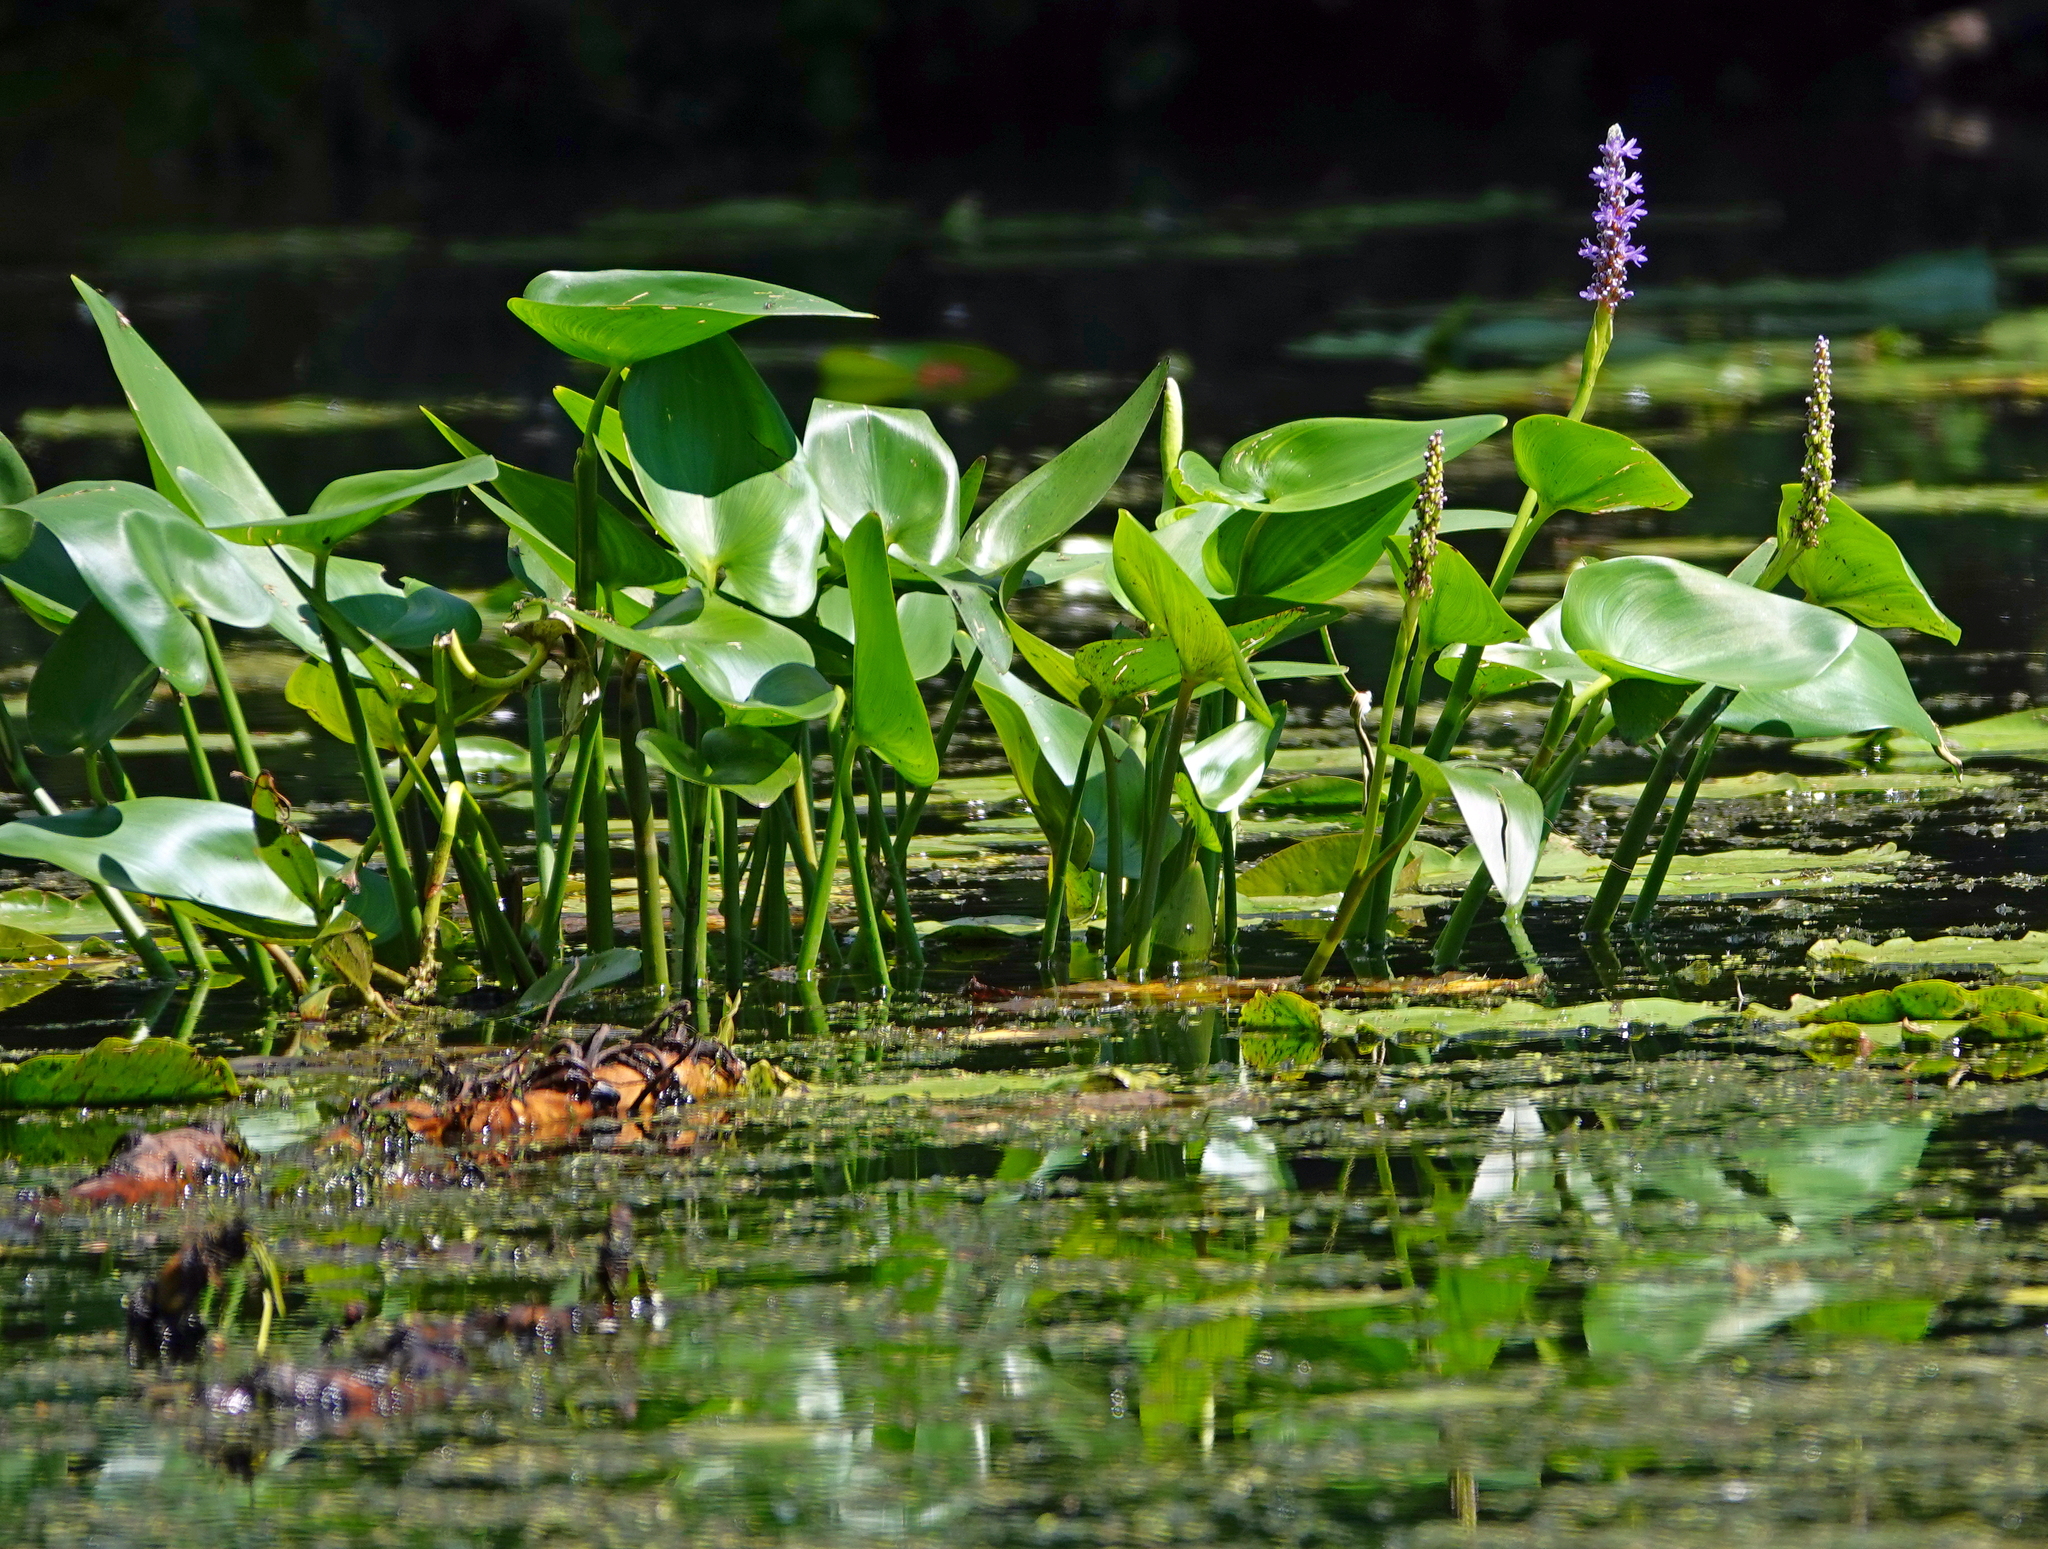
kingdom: Plantae
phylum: Tracheophyta
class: Liliopsida
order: Commelinales
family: Pontederiaceae
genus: Pontederia
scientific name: Pontederia cordata
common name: Pickerelweed
